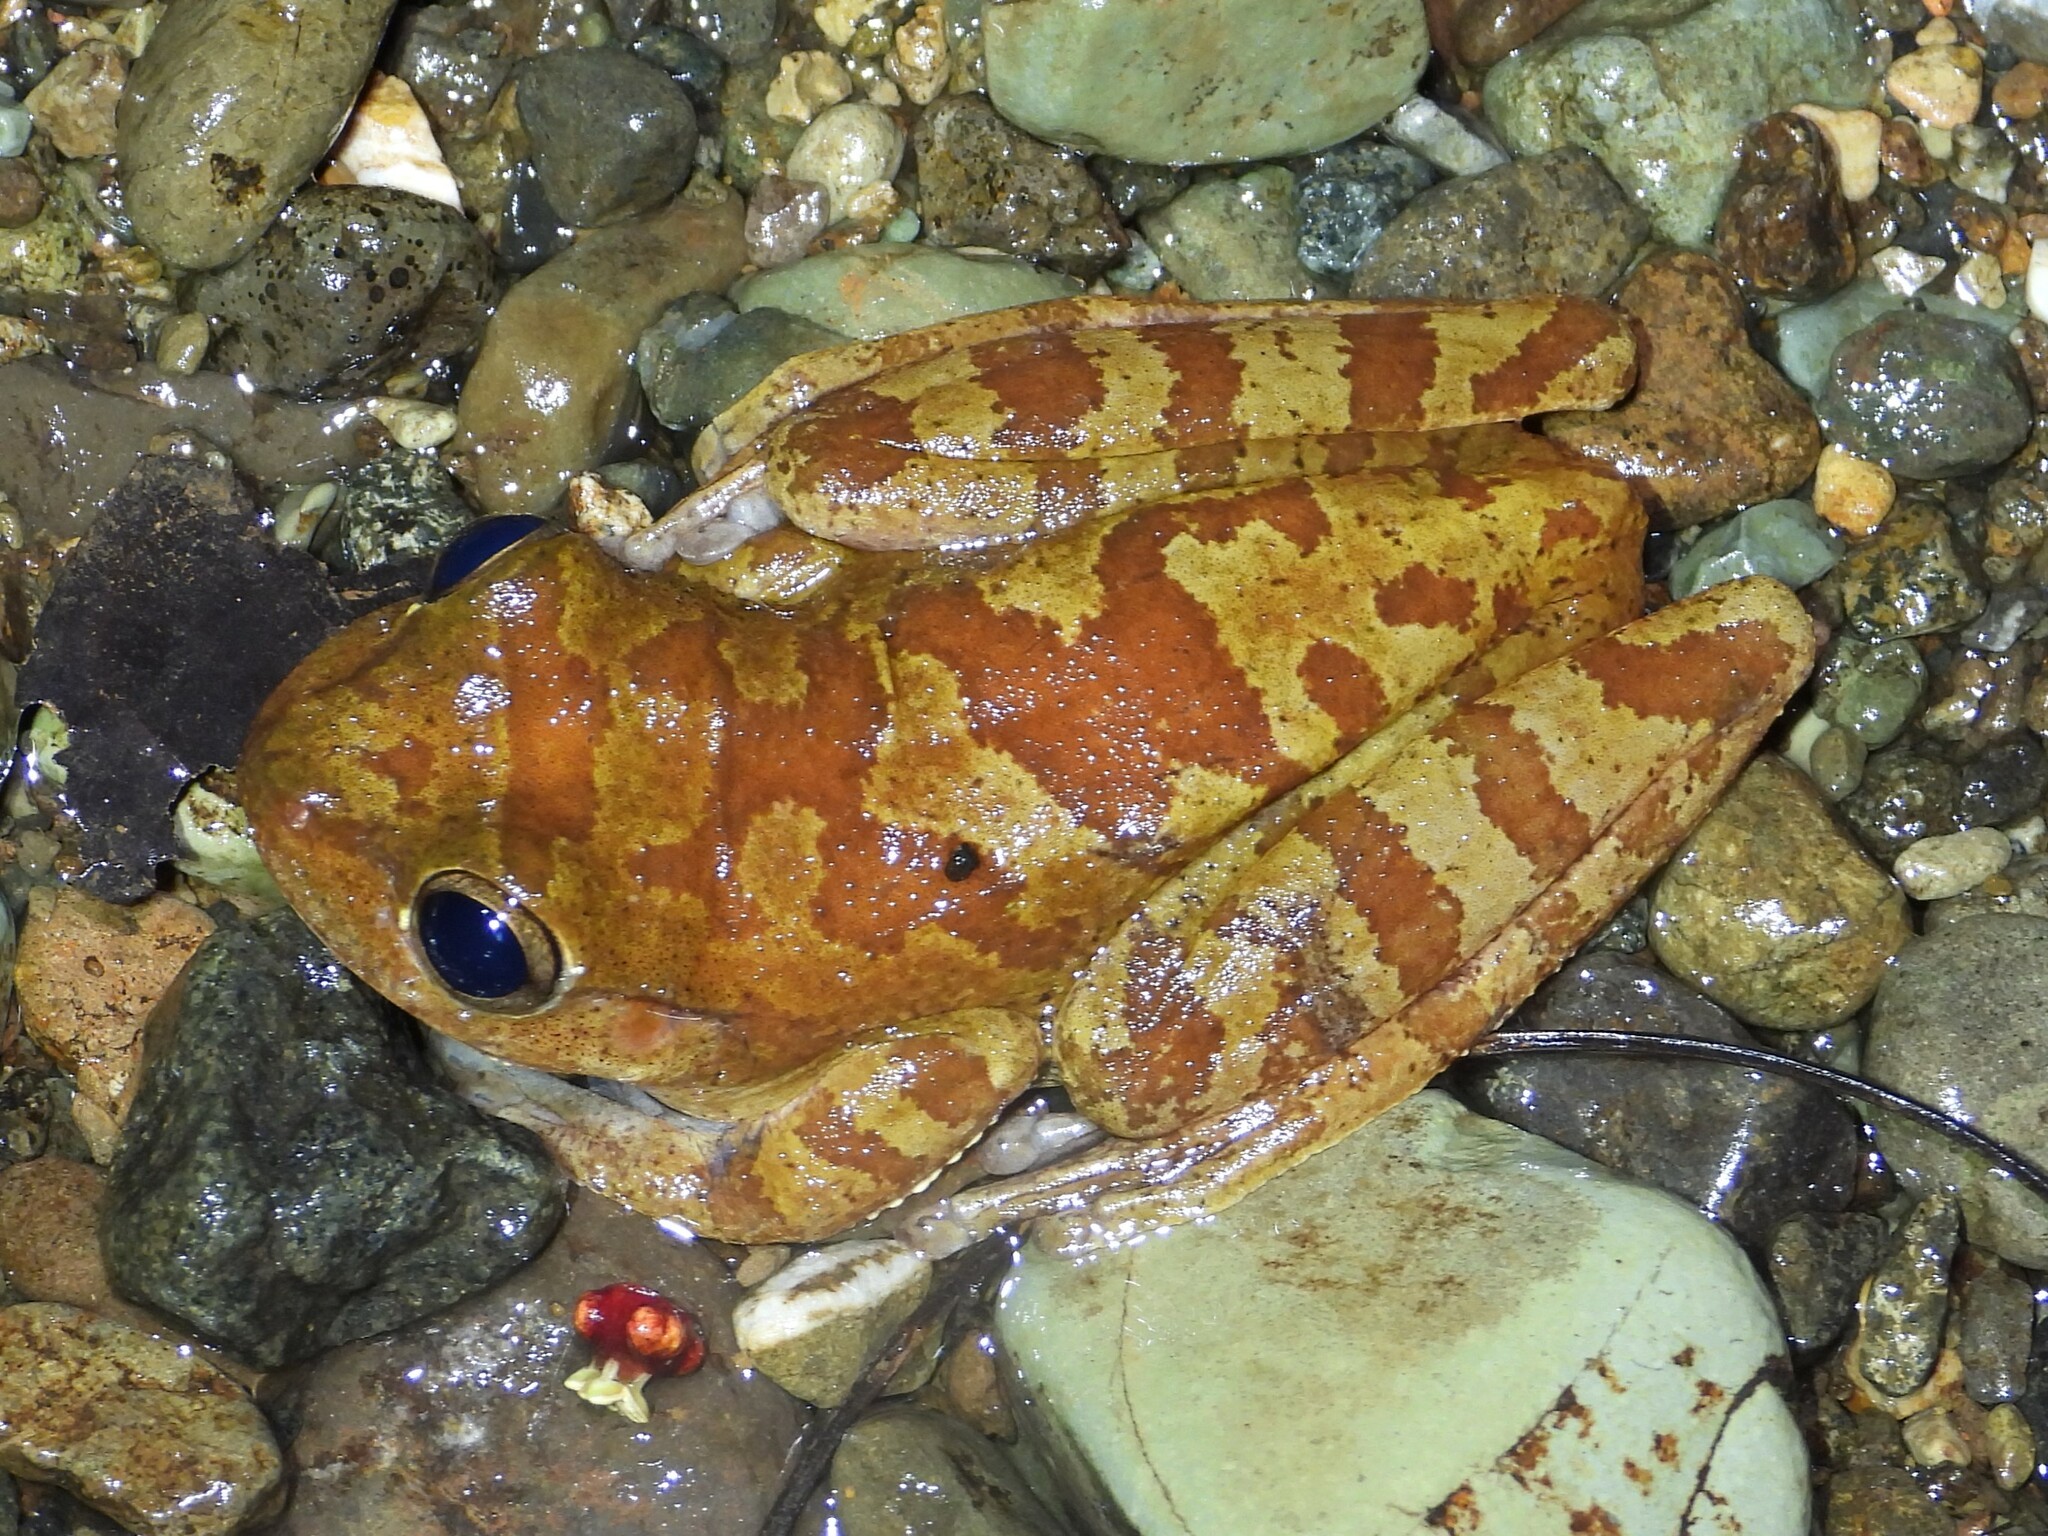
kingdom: Animalia
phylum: Chordata
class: Amphibia
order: Anura
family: Hylidae
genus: Smilisca
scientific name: Smilisca sordida
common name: Veragua cross-banded treefrog
